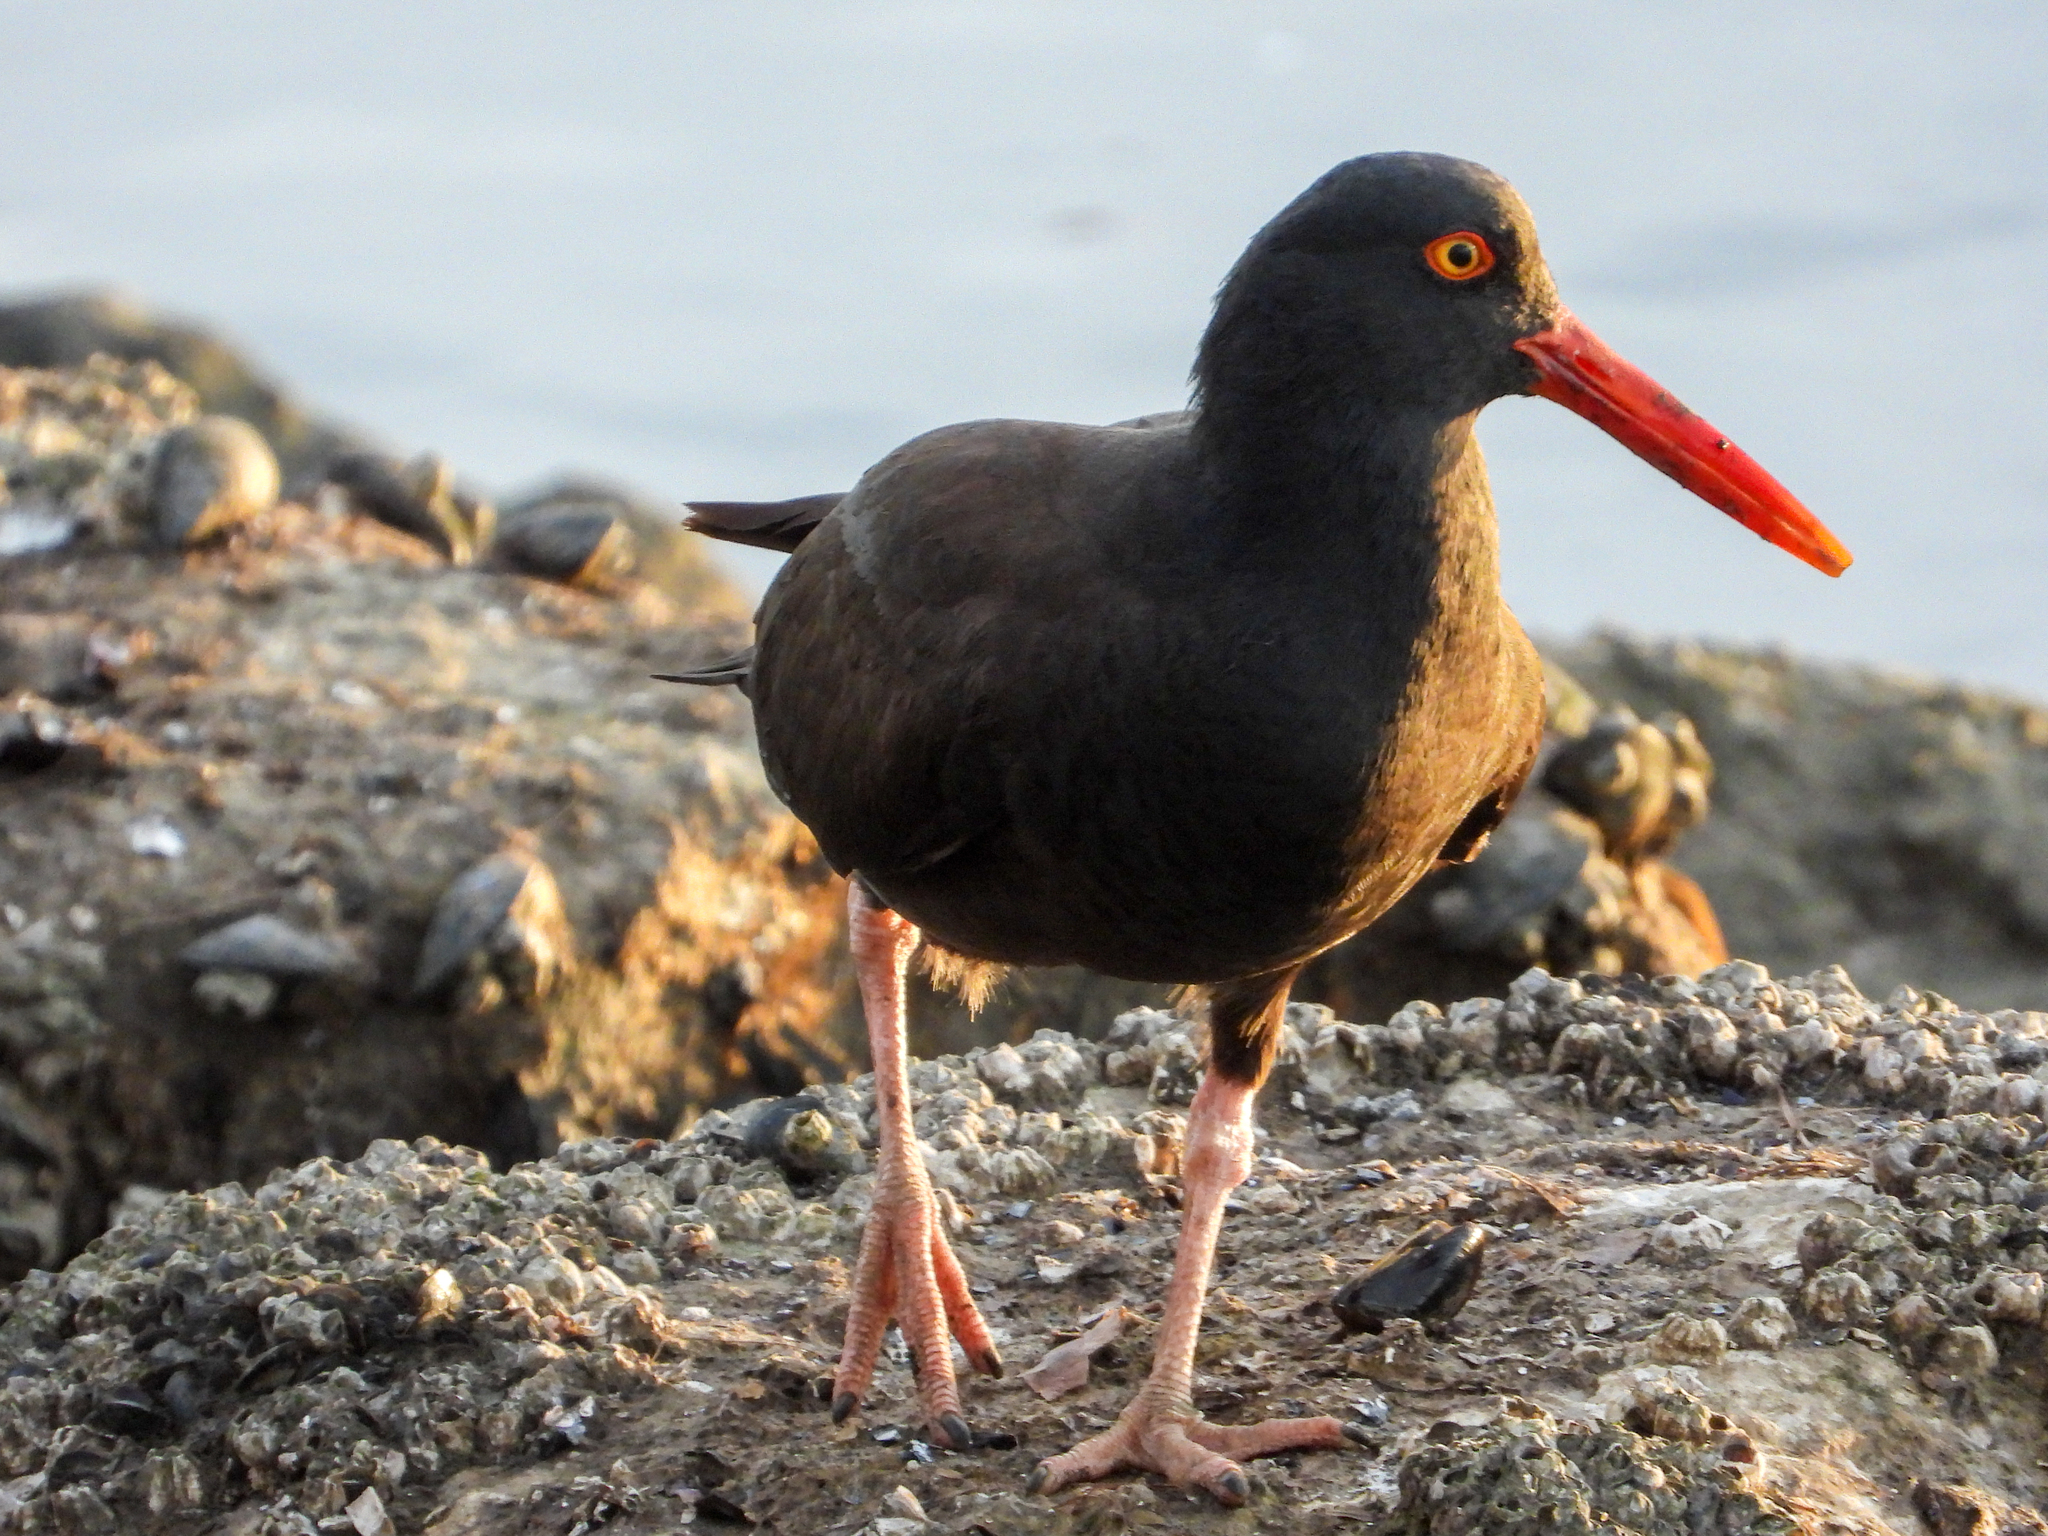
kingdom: Animalia
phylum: Chordata
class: Aves
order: Charadriiformes
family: Haematopodidae
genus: Haematopus
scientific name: Haematopus bachmani
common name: Black oystercatcher
